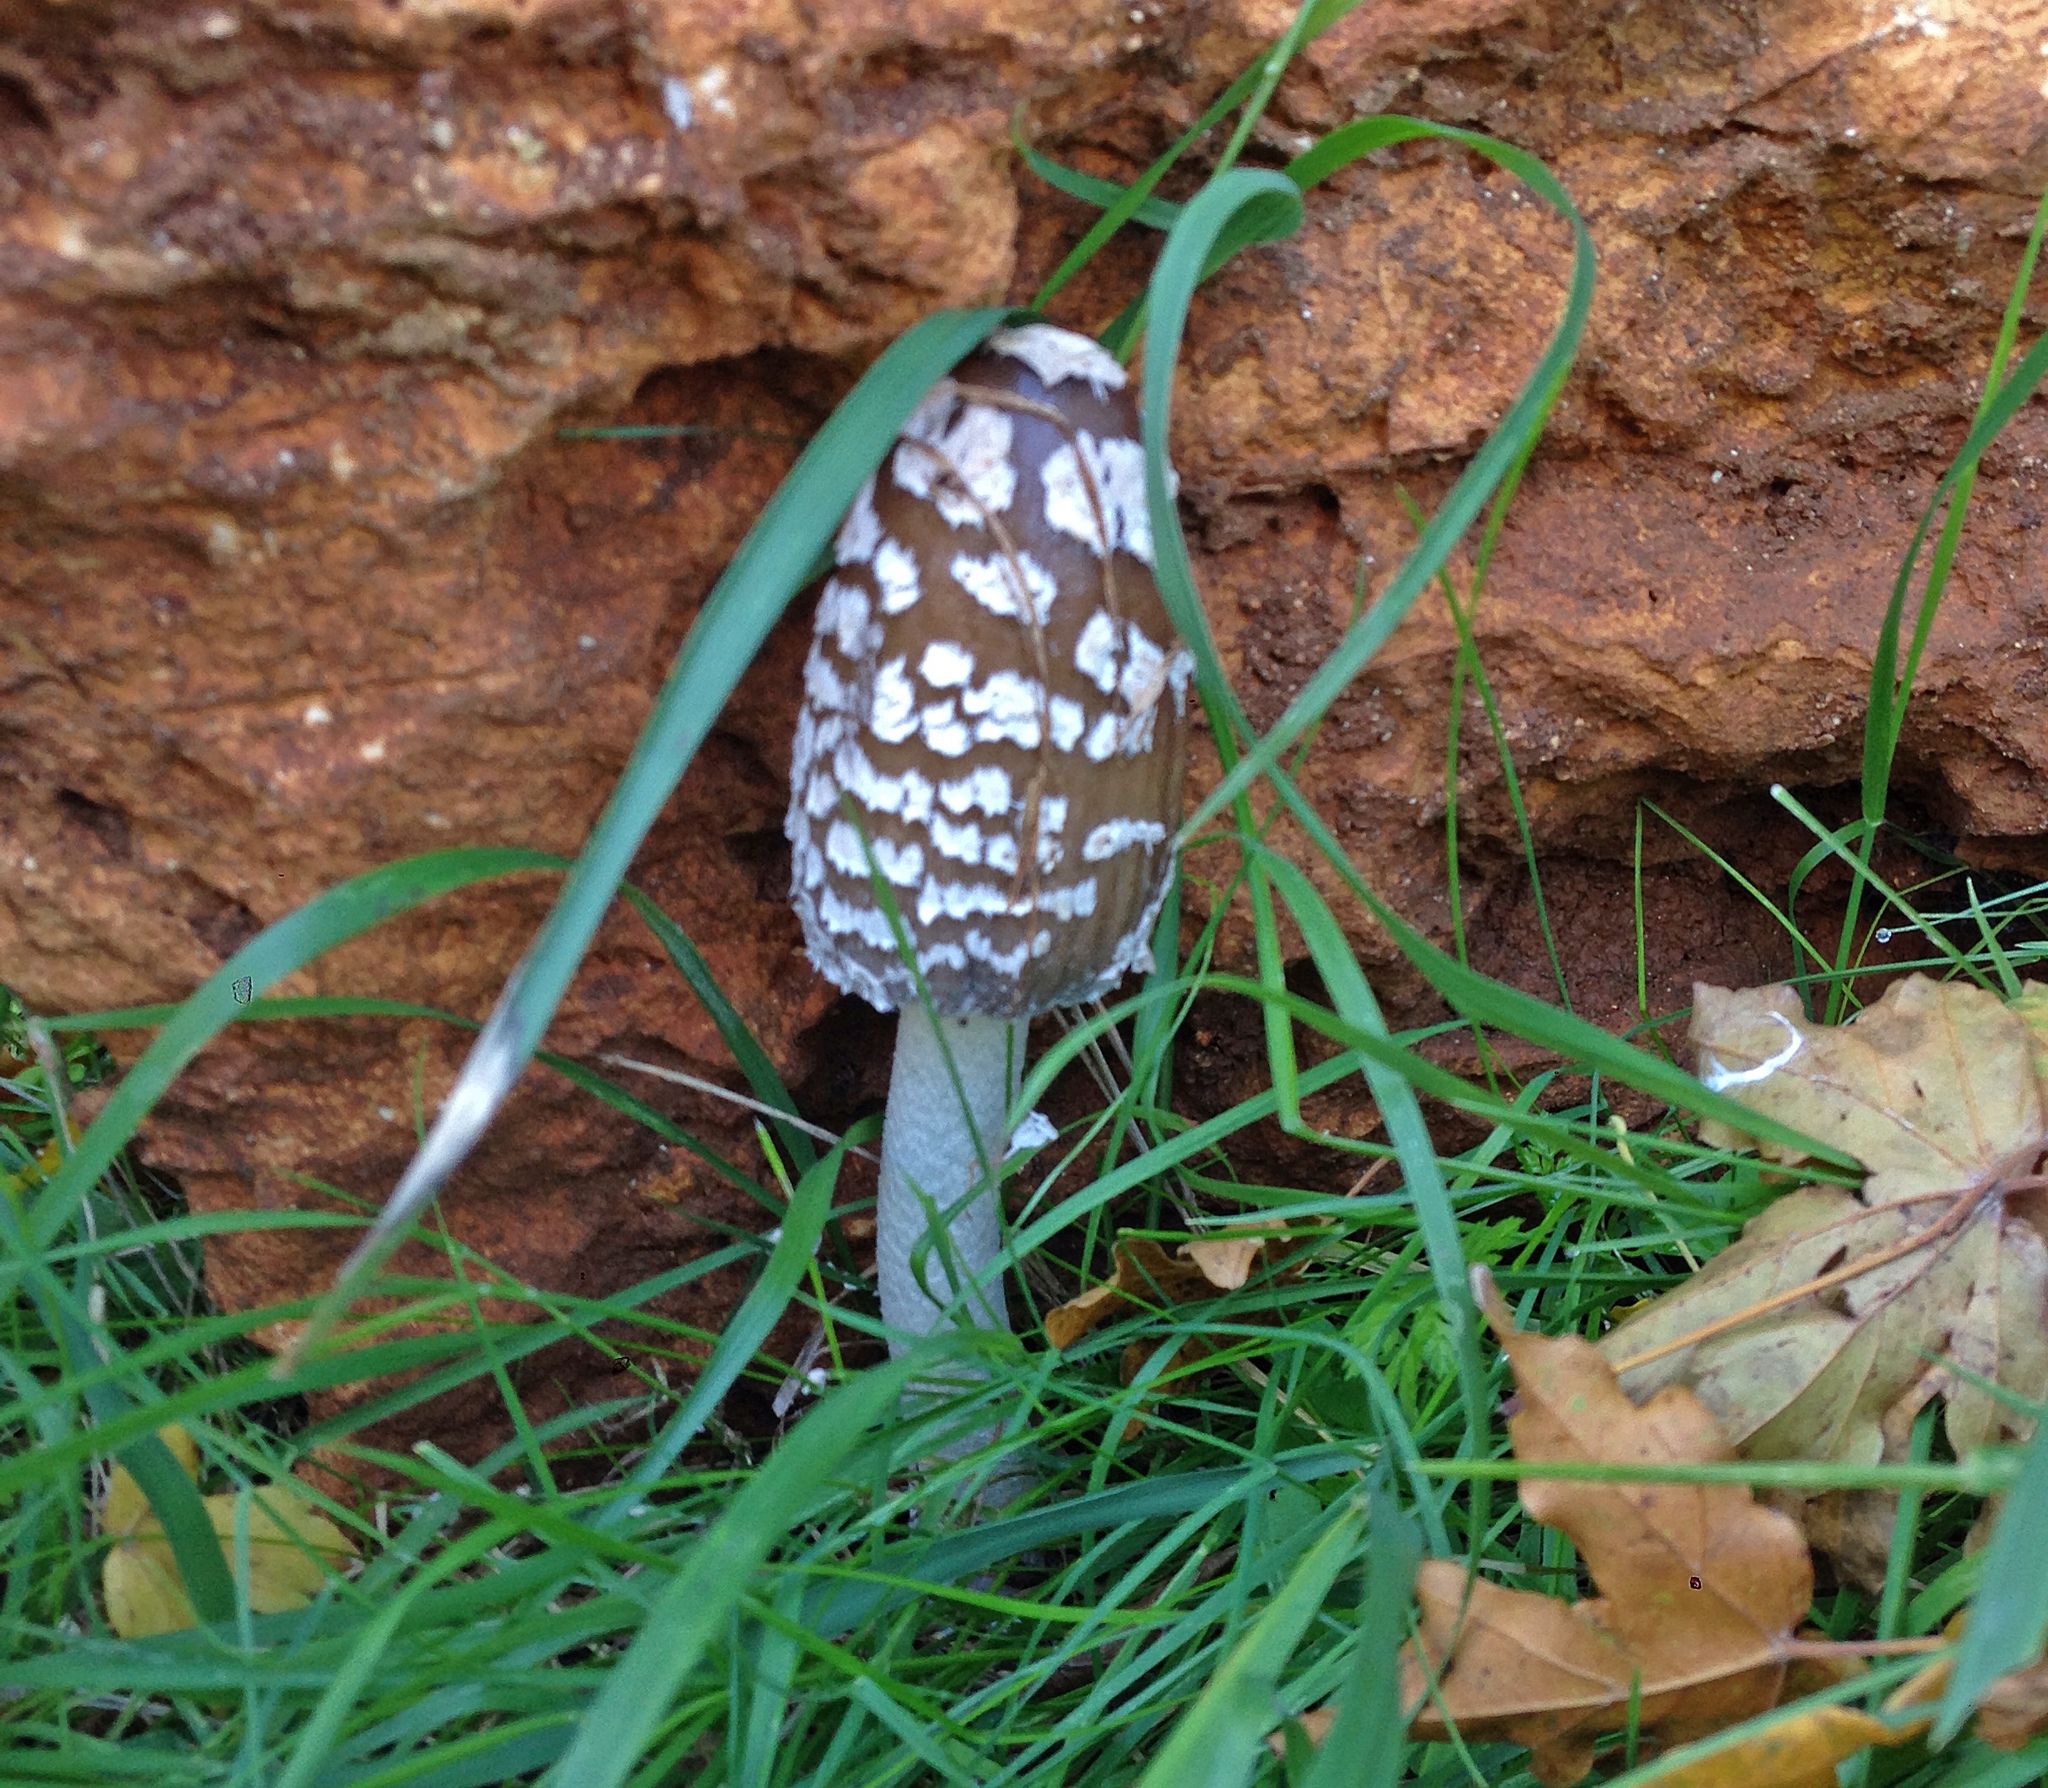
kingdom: Fungi
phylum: Basidiomycota
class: Agaricomycetes
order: Agaricales
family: Psathyrellaceae
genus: Coprinopsis
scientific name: Coprinopsis picacea
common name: Magpie inkcap
